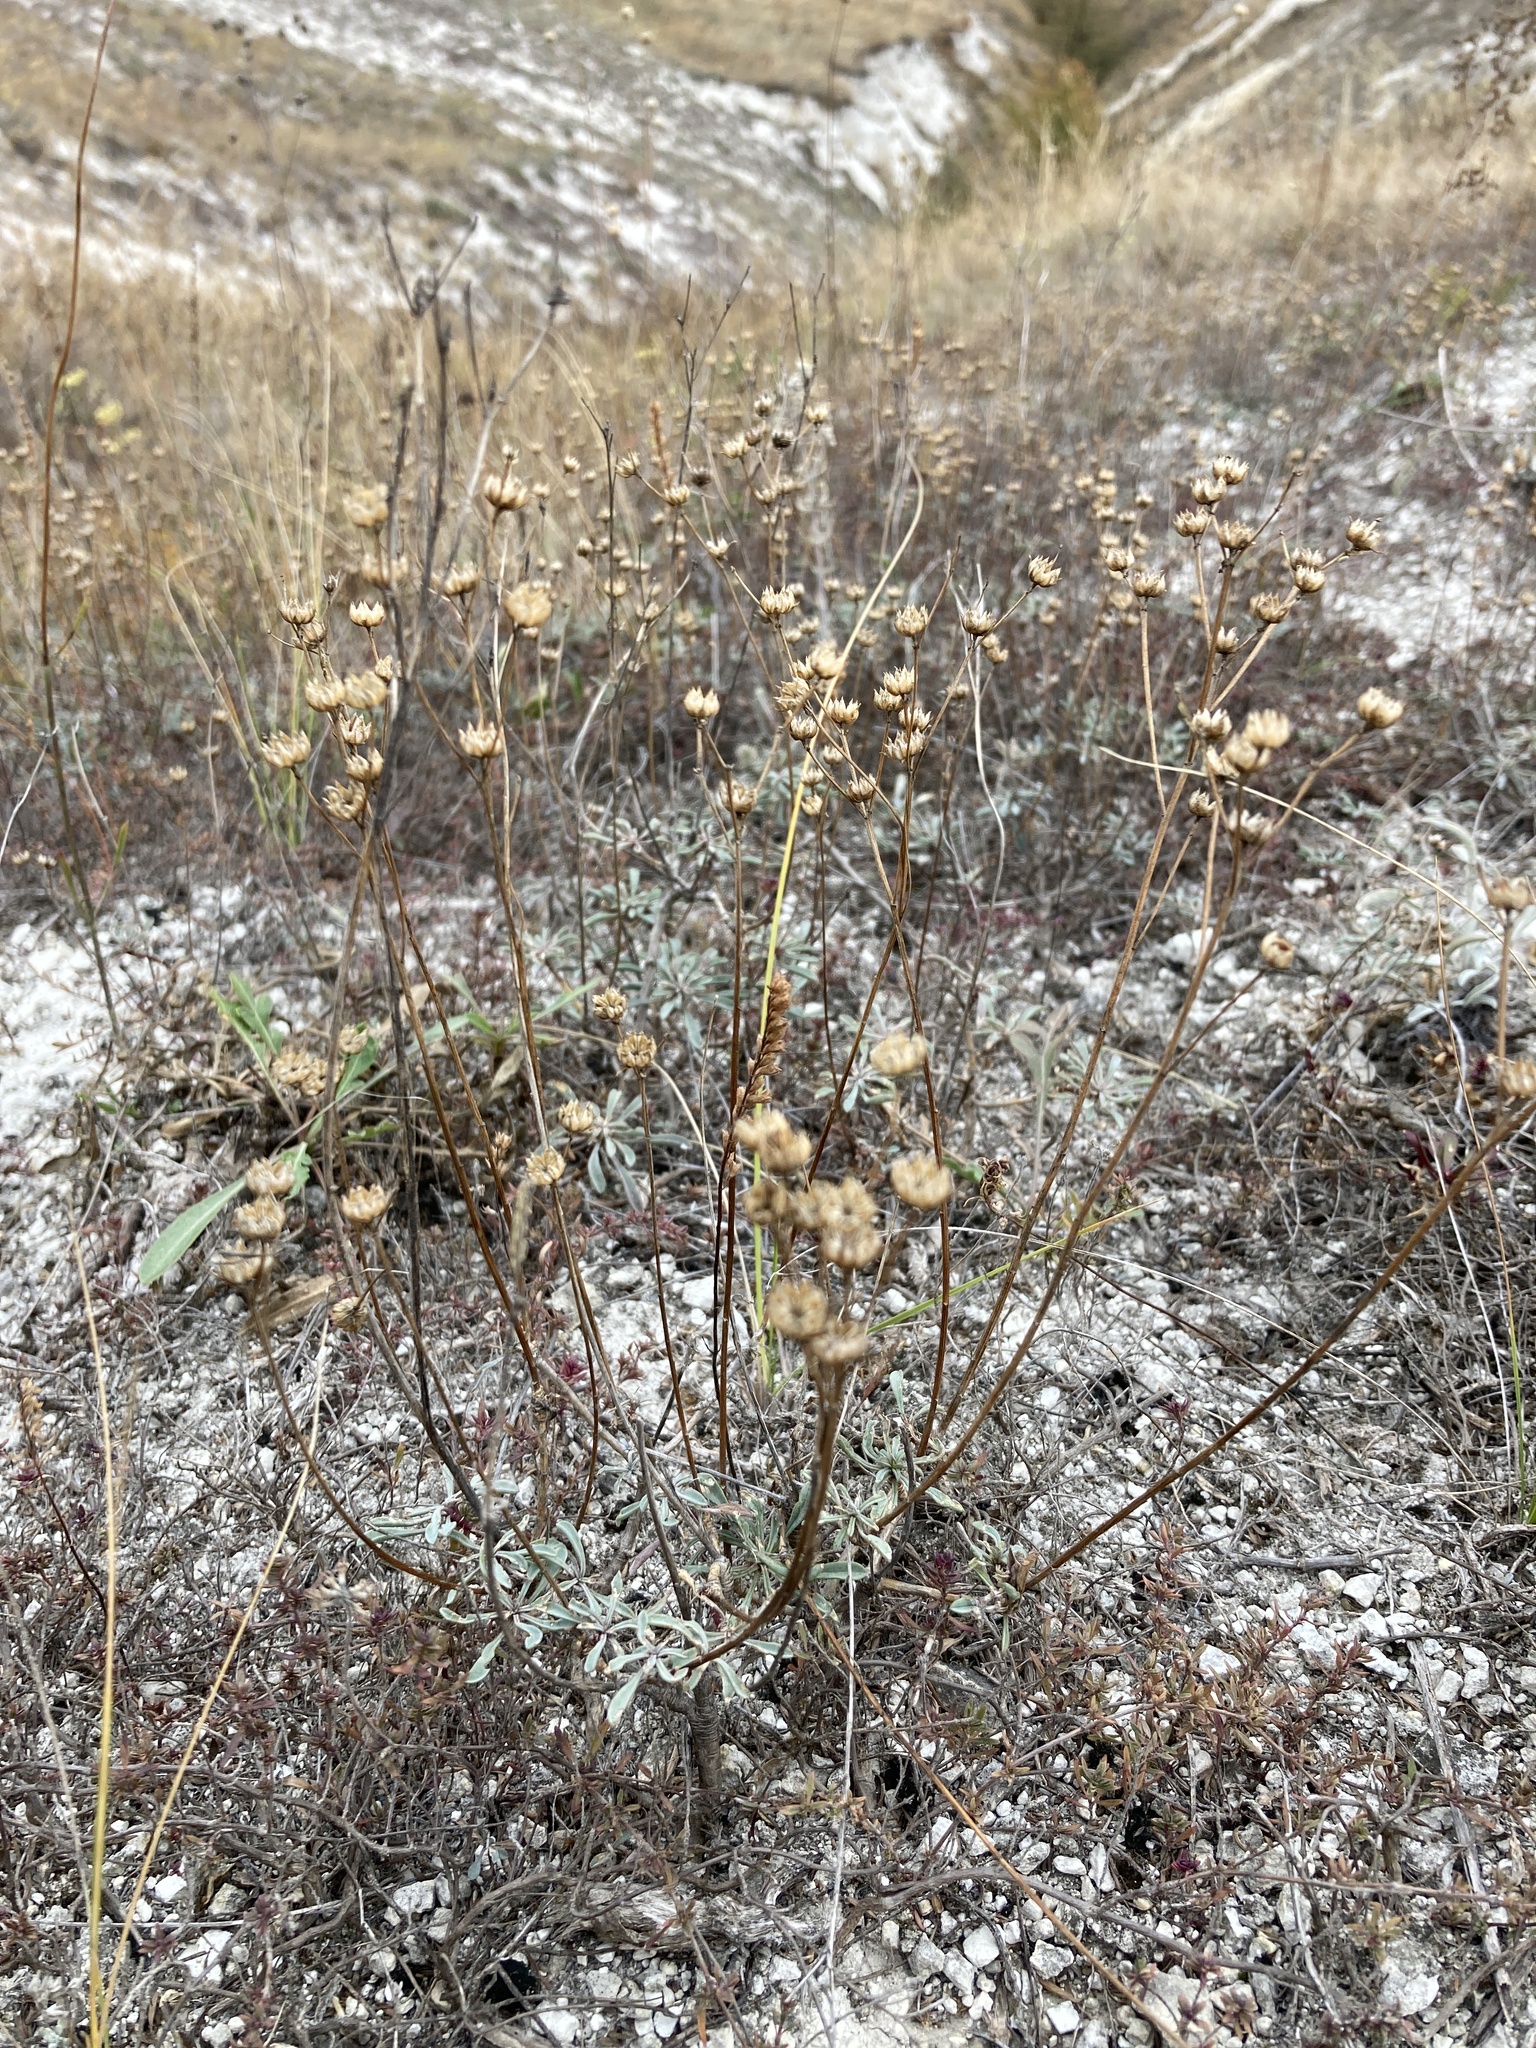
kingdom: Plantae
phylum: Tracheophyta
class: Magnoliopsida
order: Malpighiales
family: Linaceae
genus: Linum
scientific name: Linum ucranicum
